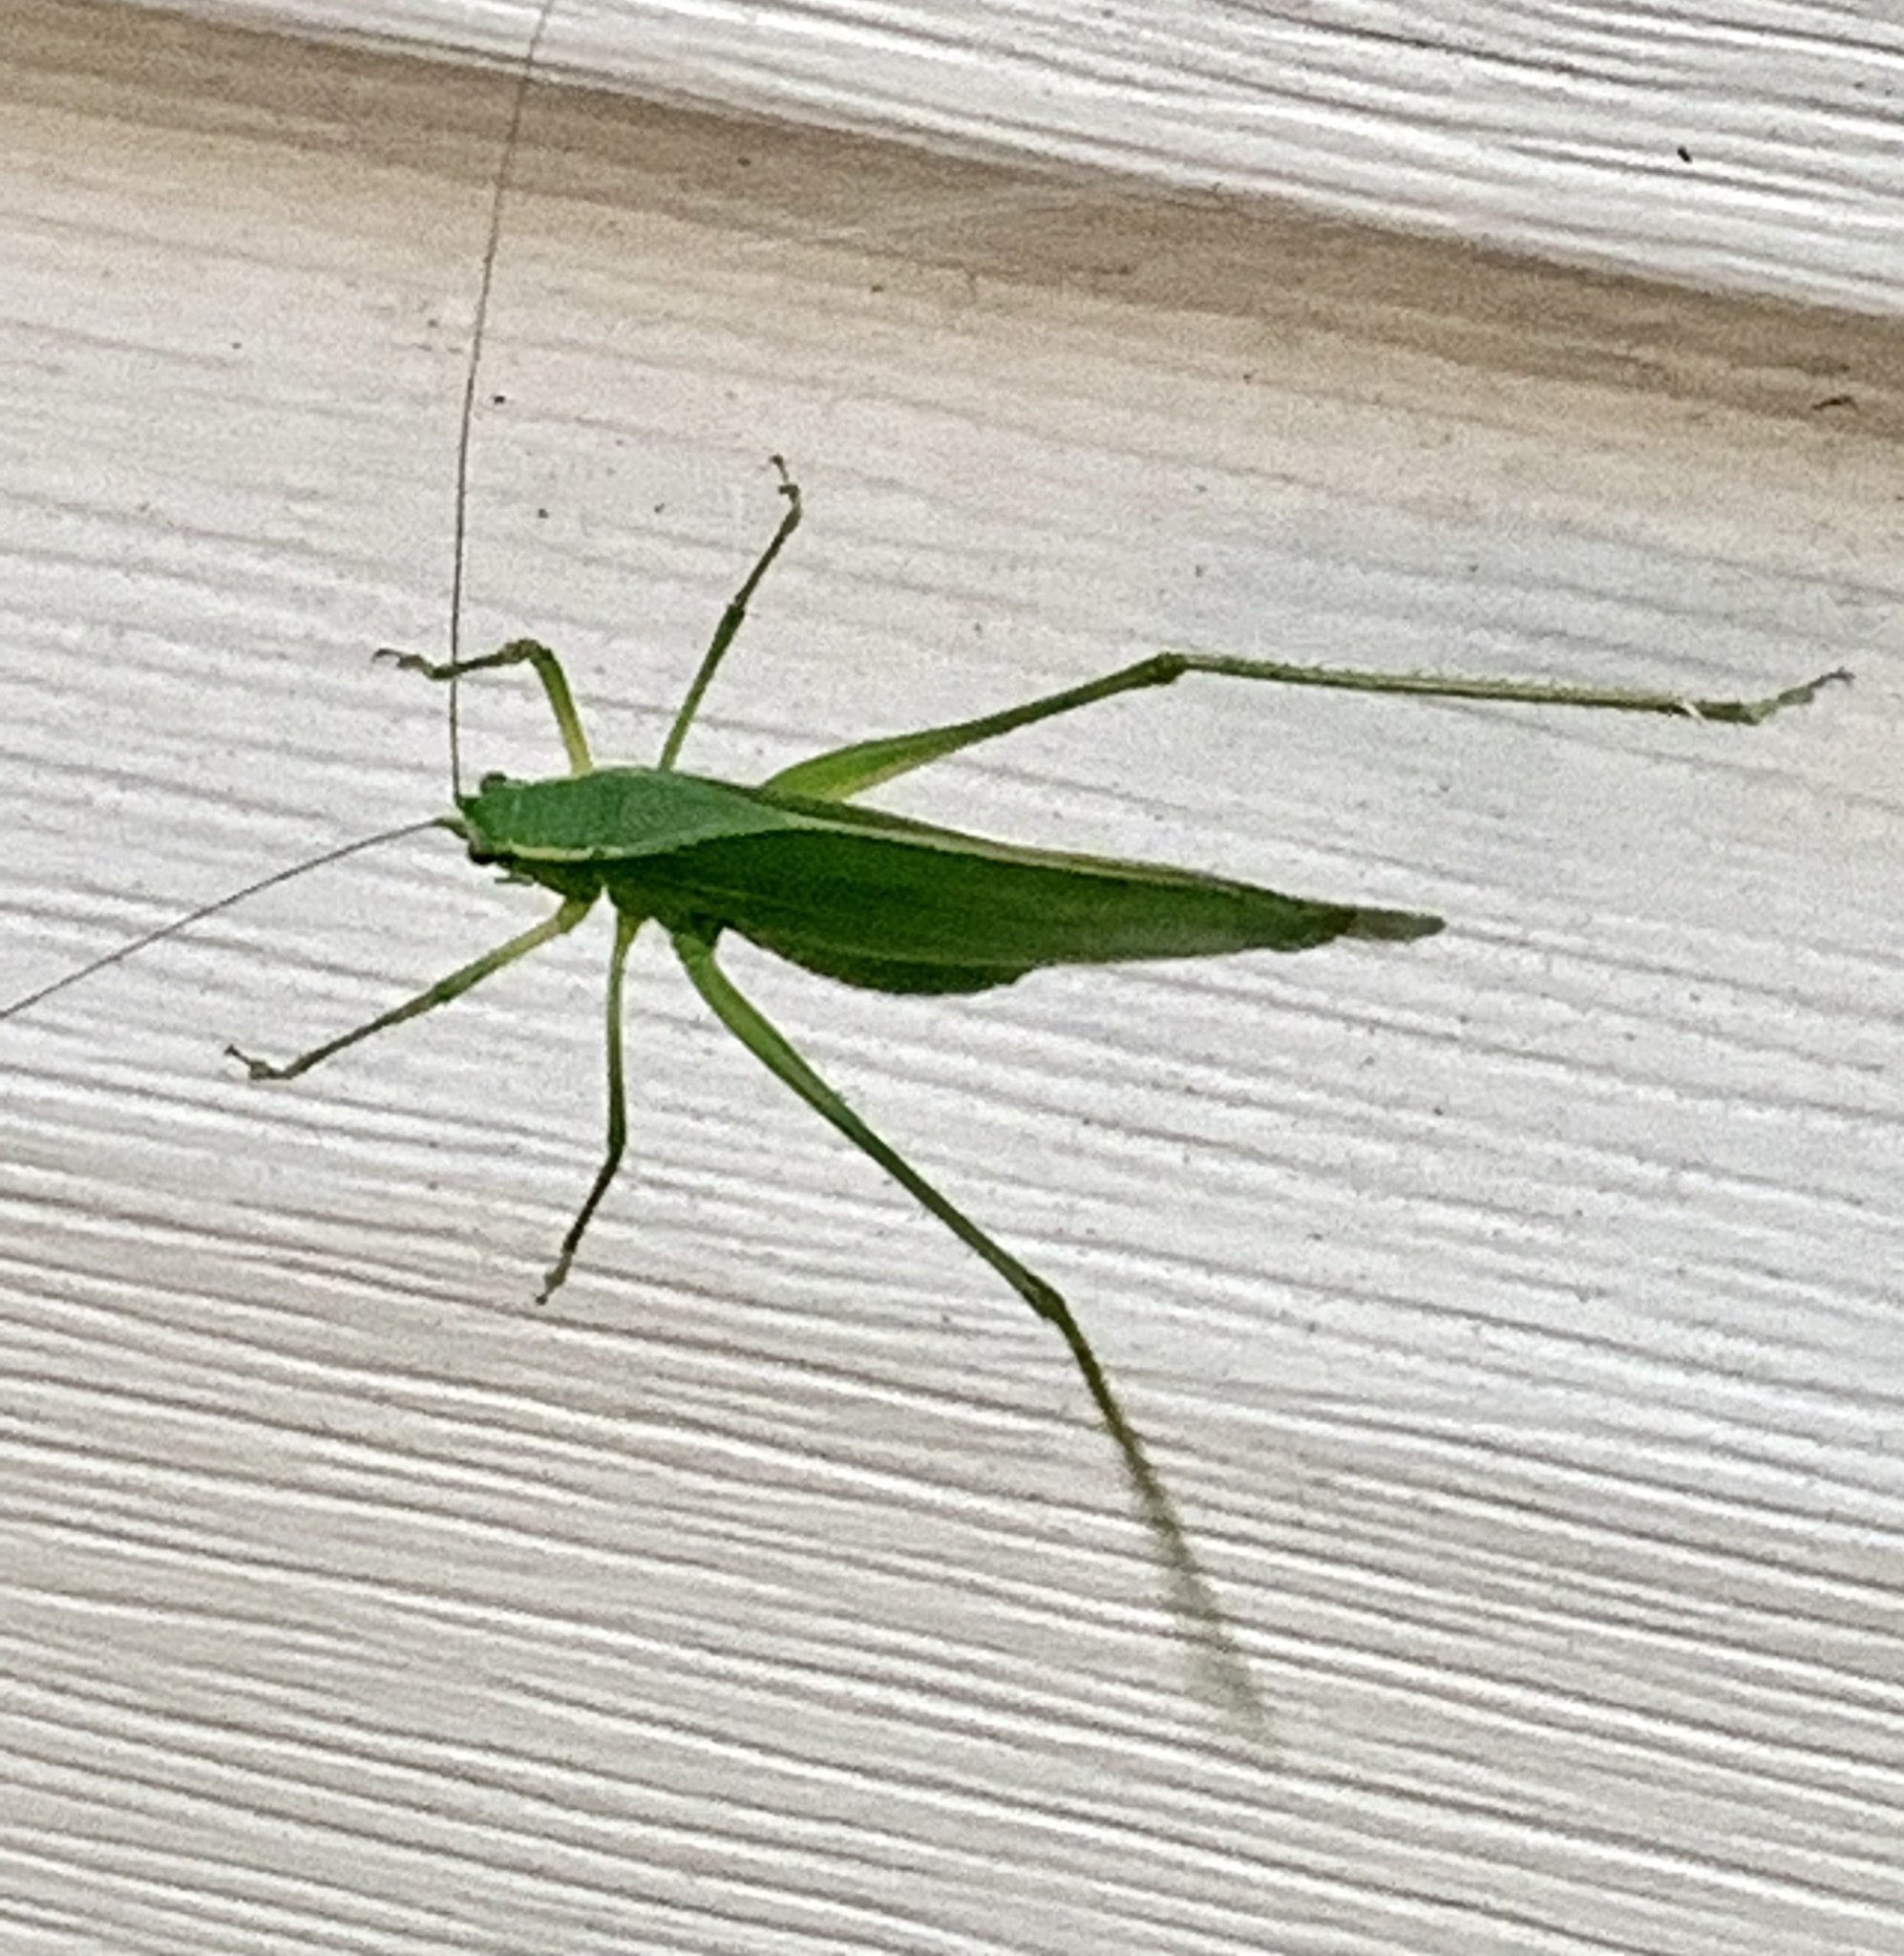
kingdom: Animalia
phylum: Arthropoda
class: Insecta
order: Orthoptera
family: Tettigoniidae
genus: Scudderia
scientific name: Scudderia septentrionalis
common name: Northern bush-katydid
